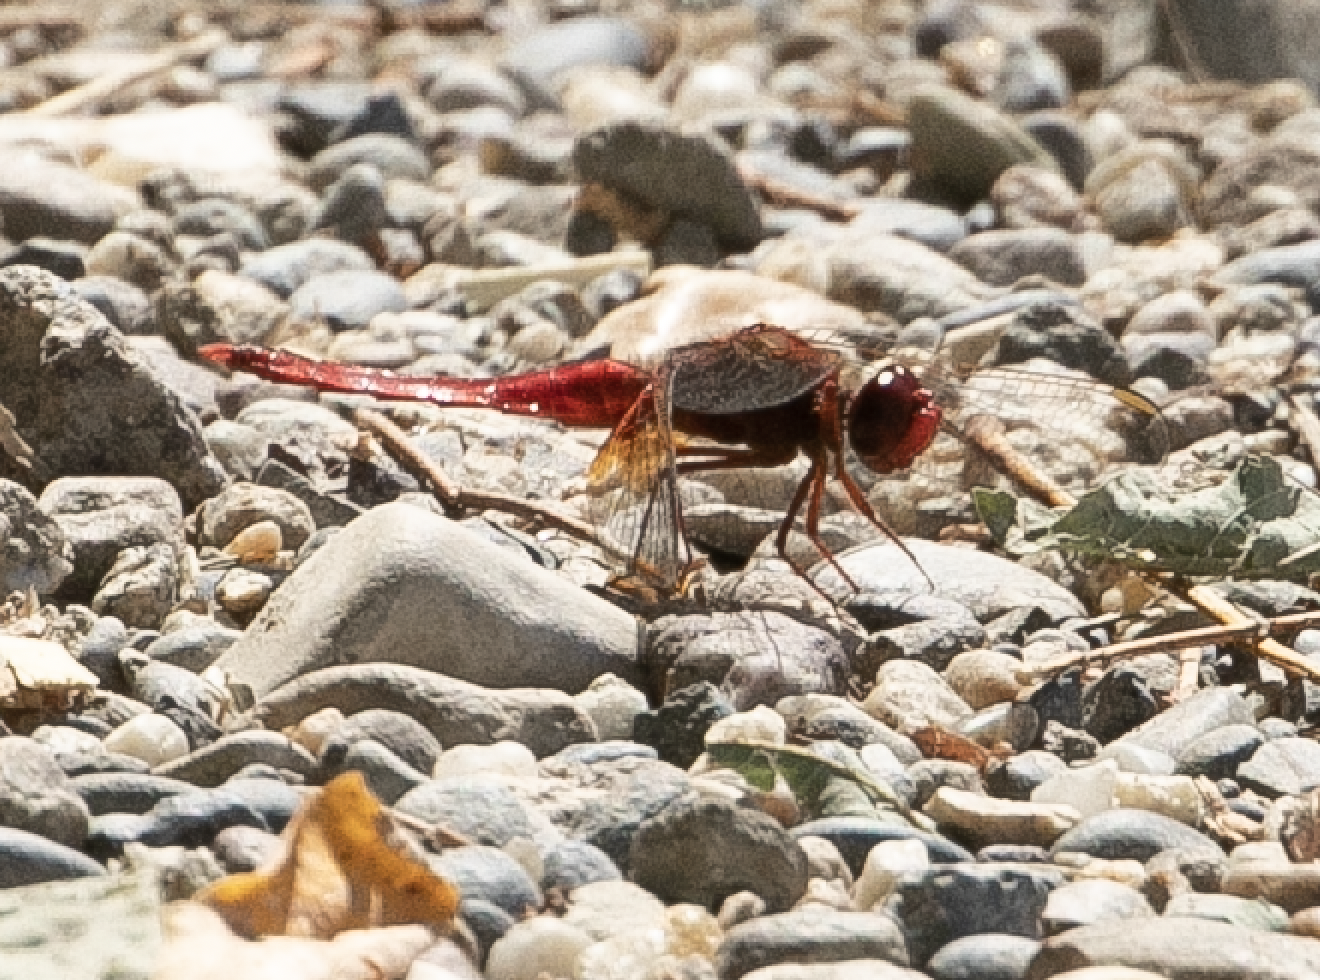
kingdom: Animalia
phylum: Arthropoda
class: Insecta
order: Odonata
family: Libellulidae
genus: Crocothemis
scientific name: Crocothemis erythraea
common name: Scarlet dragonfly
